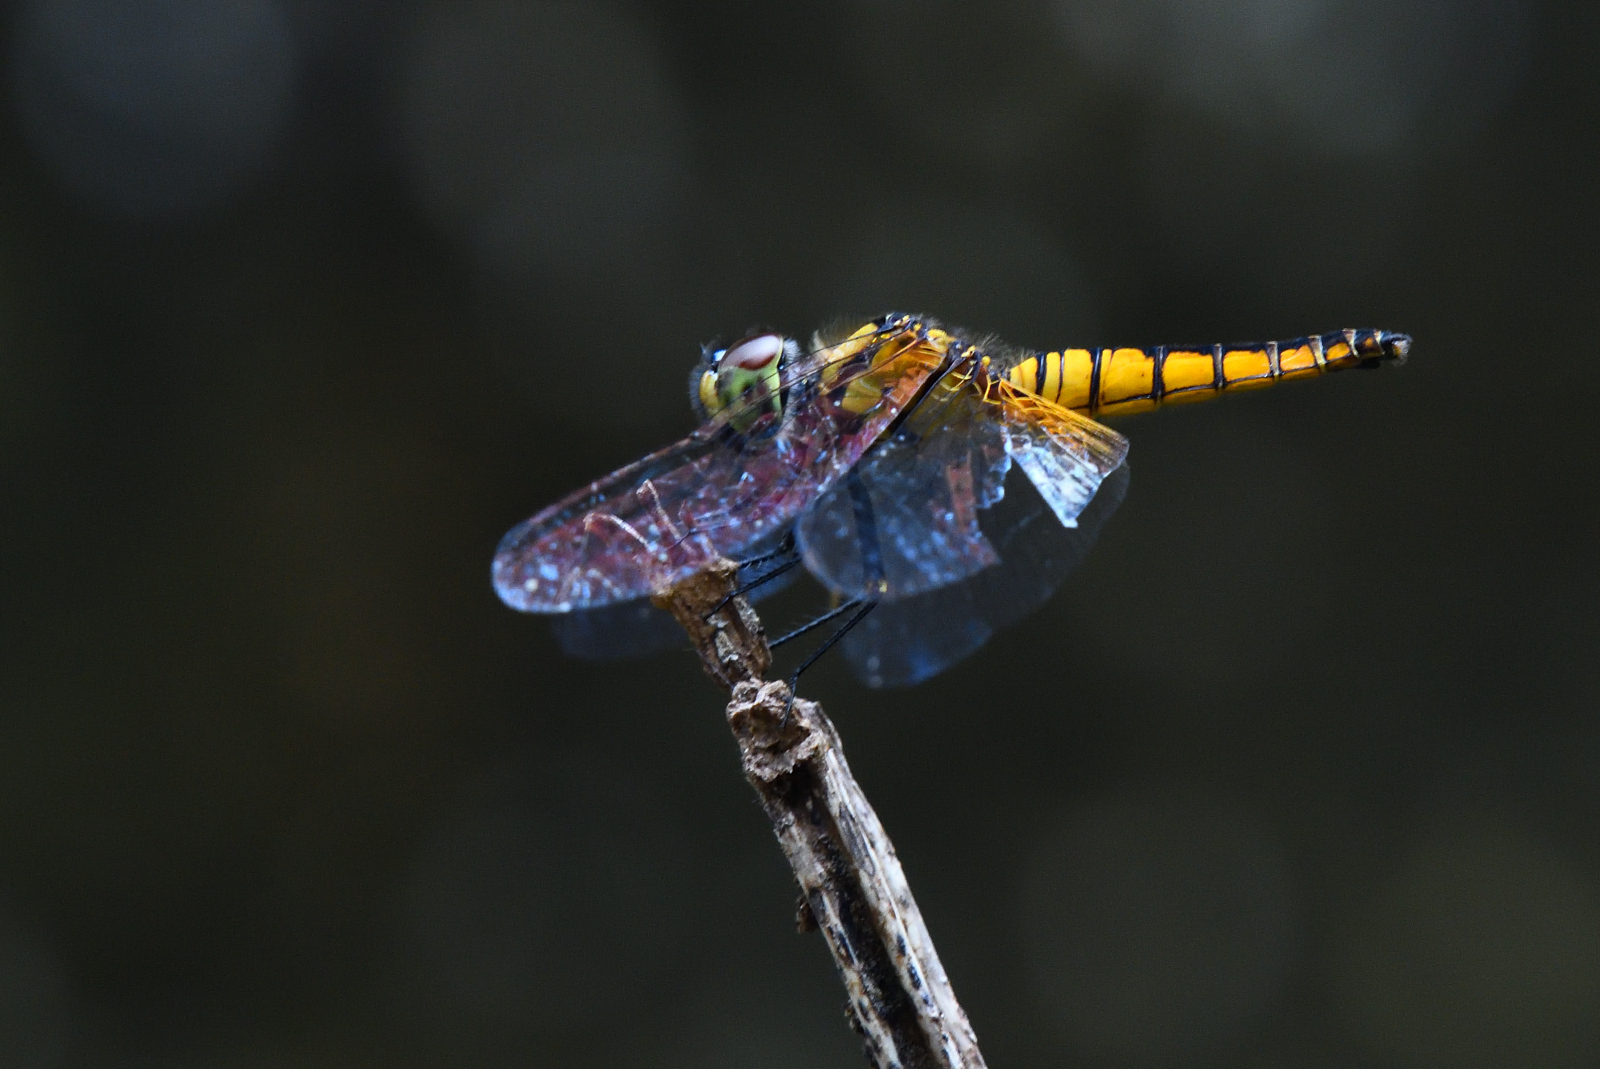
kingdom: Animalia
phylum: Arthropoda
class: Insecta
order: Odonata
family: Libellulidae
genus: Aethriamanta
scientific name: Aethriamanta brevipennis
